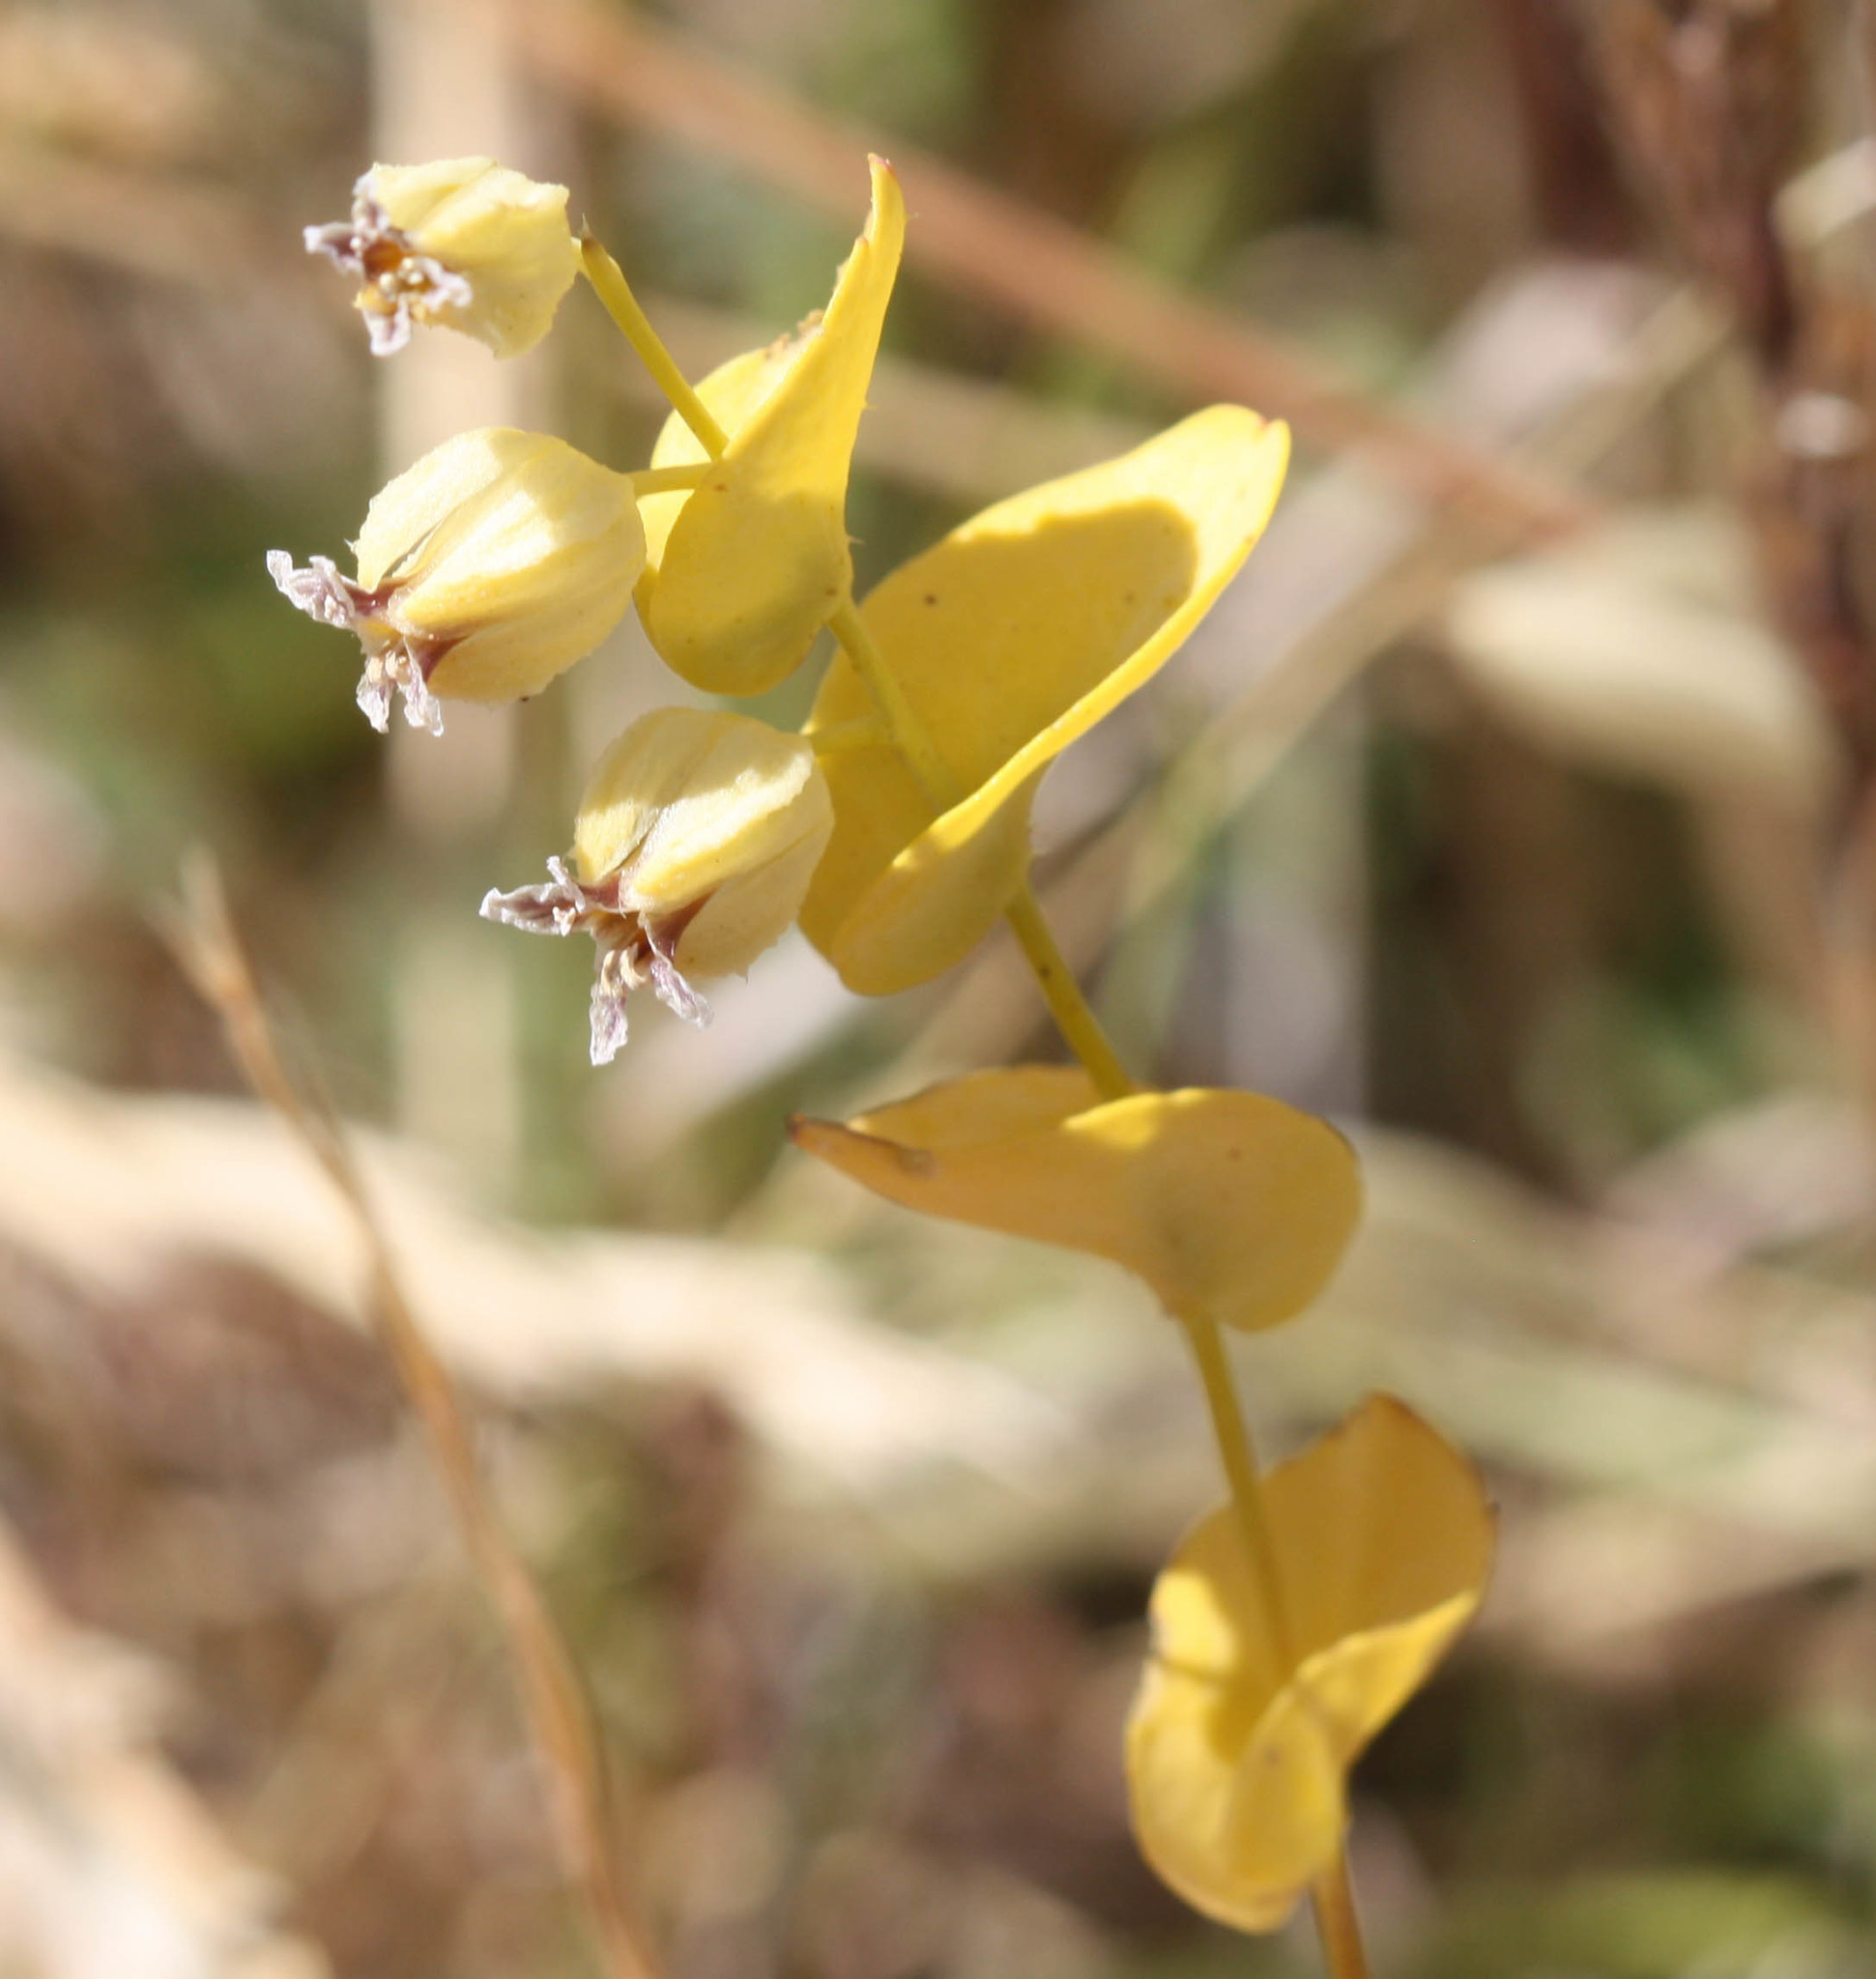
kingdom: Plantae
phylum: Tracheophyta
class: Magnoliopsida
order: Brassicales
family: Brassicaceae
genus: Streptanthus
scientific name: Streptanthus anomalus
